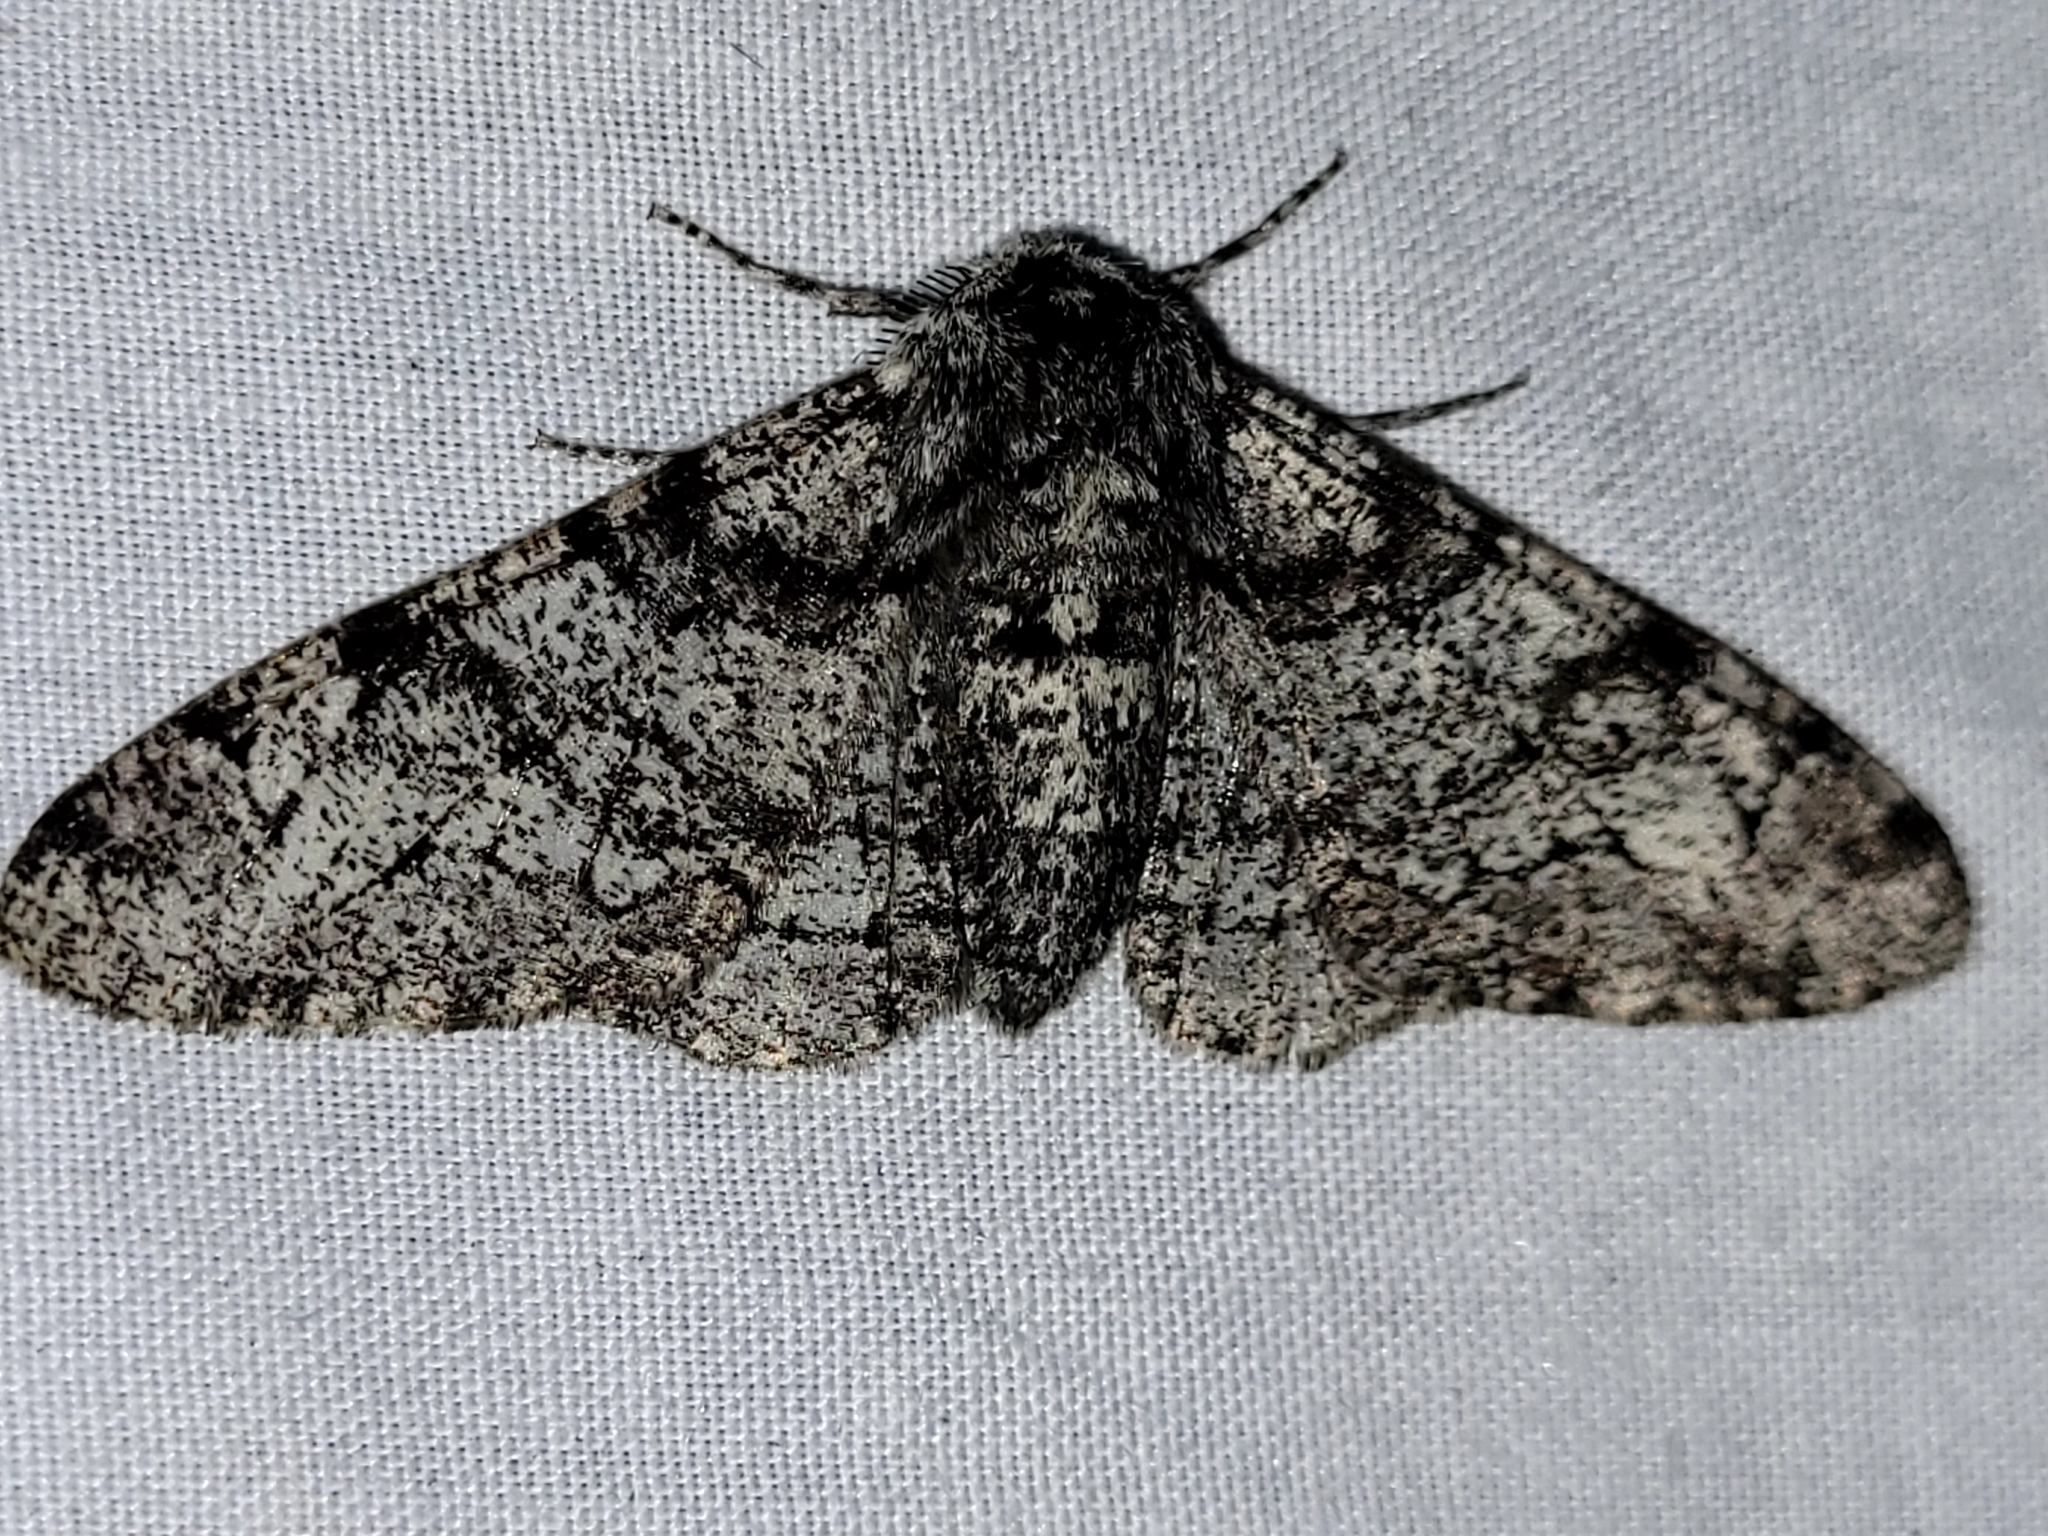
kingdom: Animalia
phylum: Arthropoda
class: Insecta
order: Lepidoptera
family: Geometridae
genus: Biston
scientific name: Biston betularia
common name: Peppered moth
